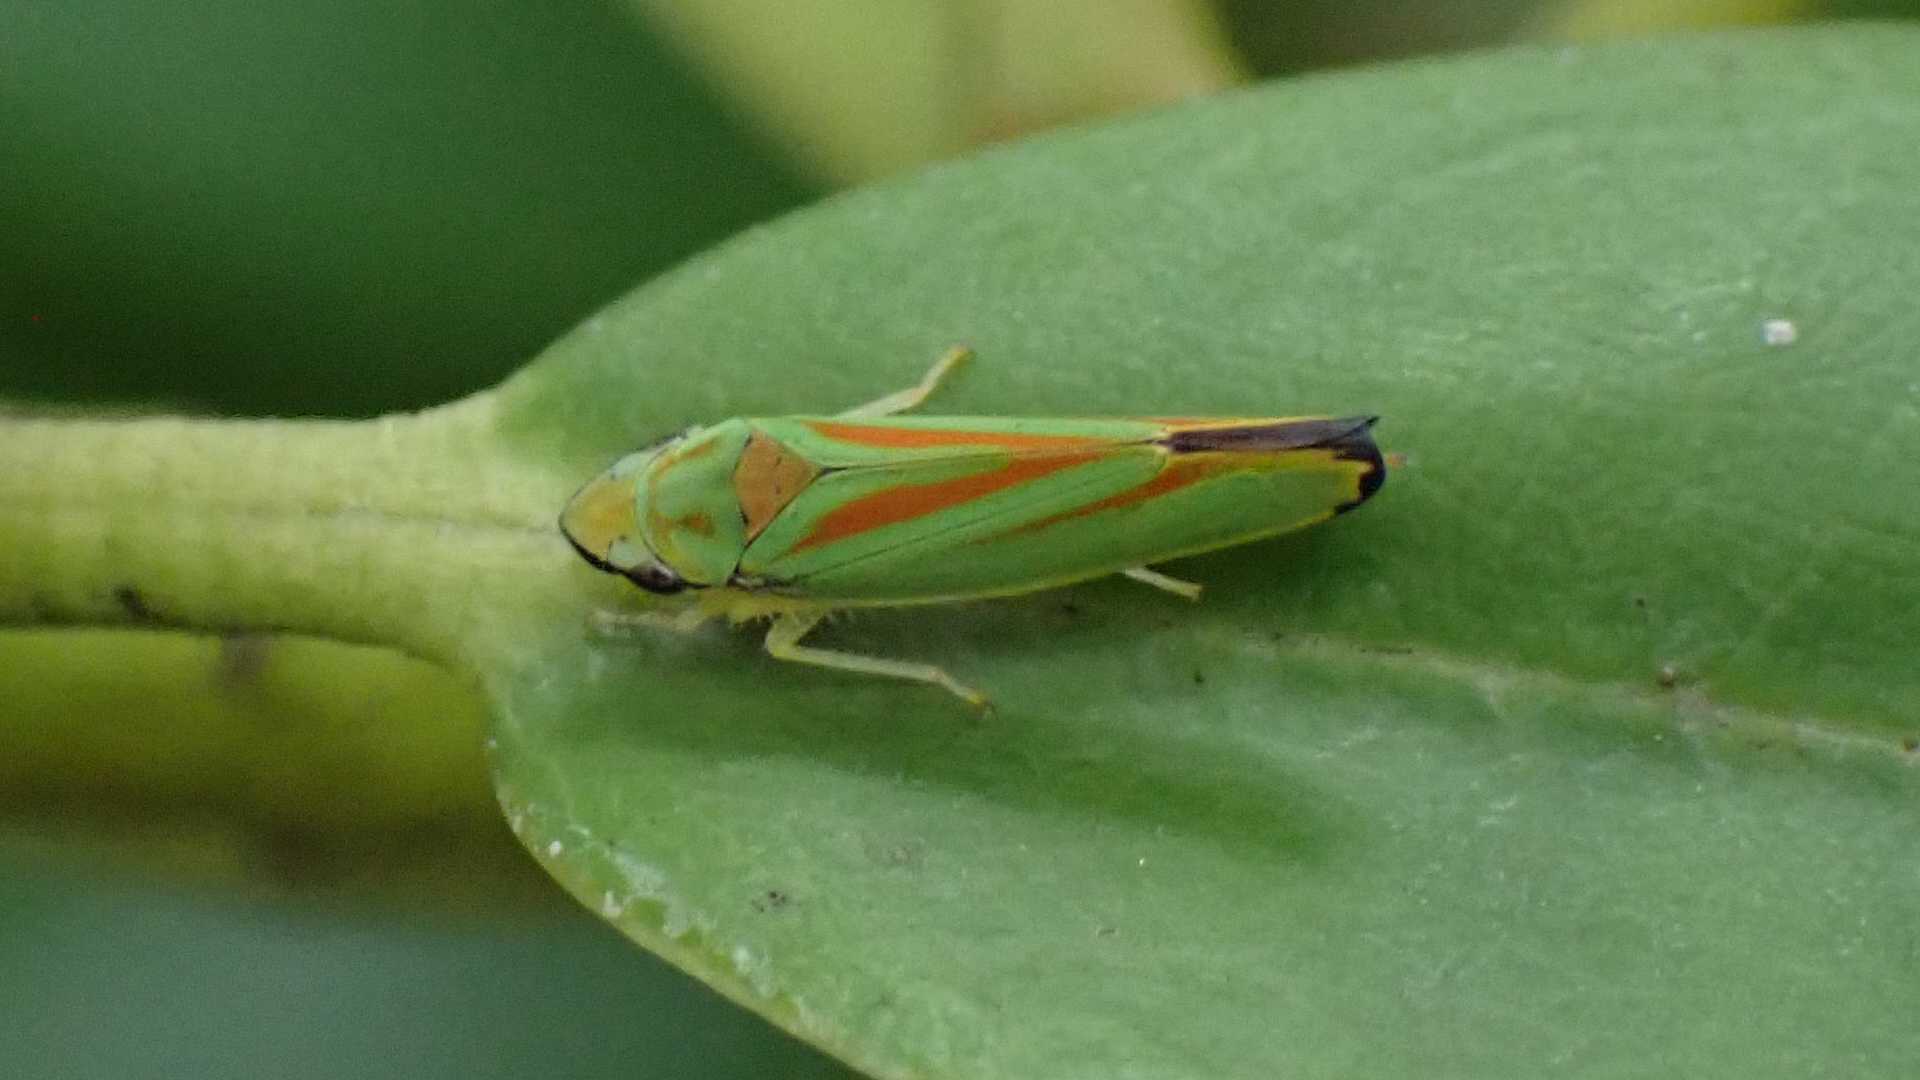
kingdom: Animalia
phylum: Arthropoda
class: Insecta
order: Hemiptera
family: Cicadellidae
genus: Graphocephala
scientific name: Graphocephala fennahi
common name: Rhododendron leafhopper
